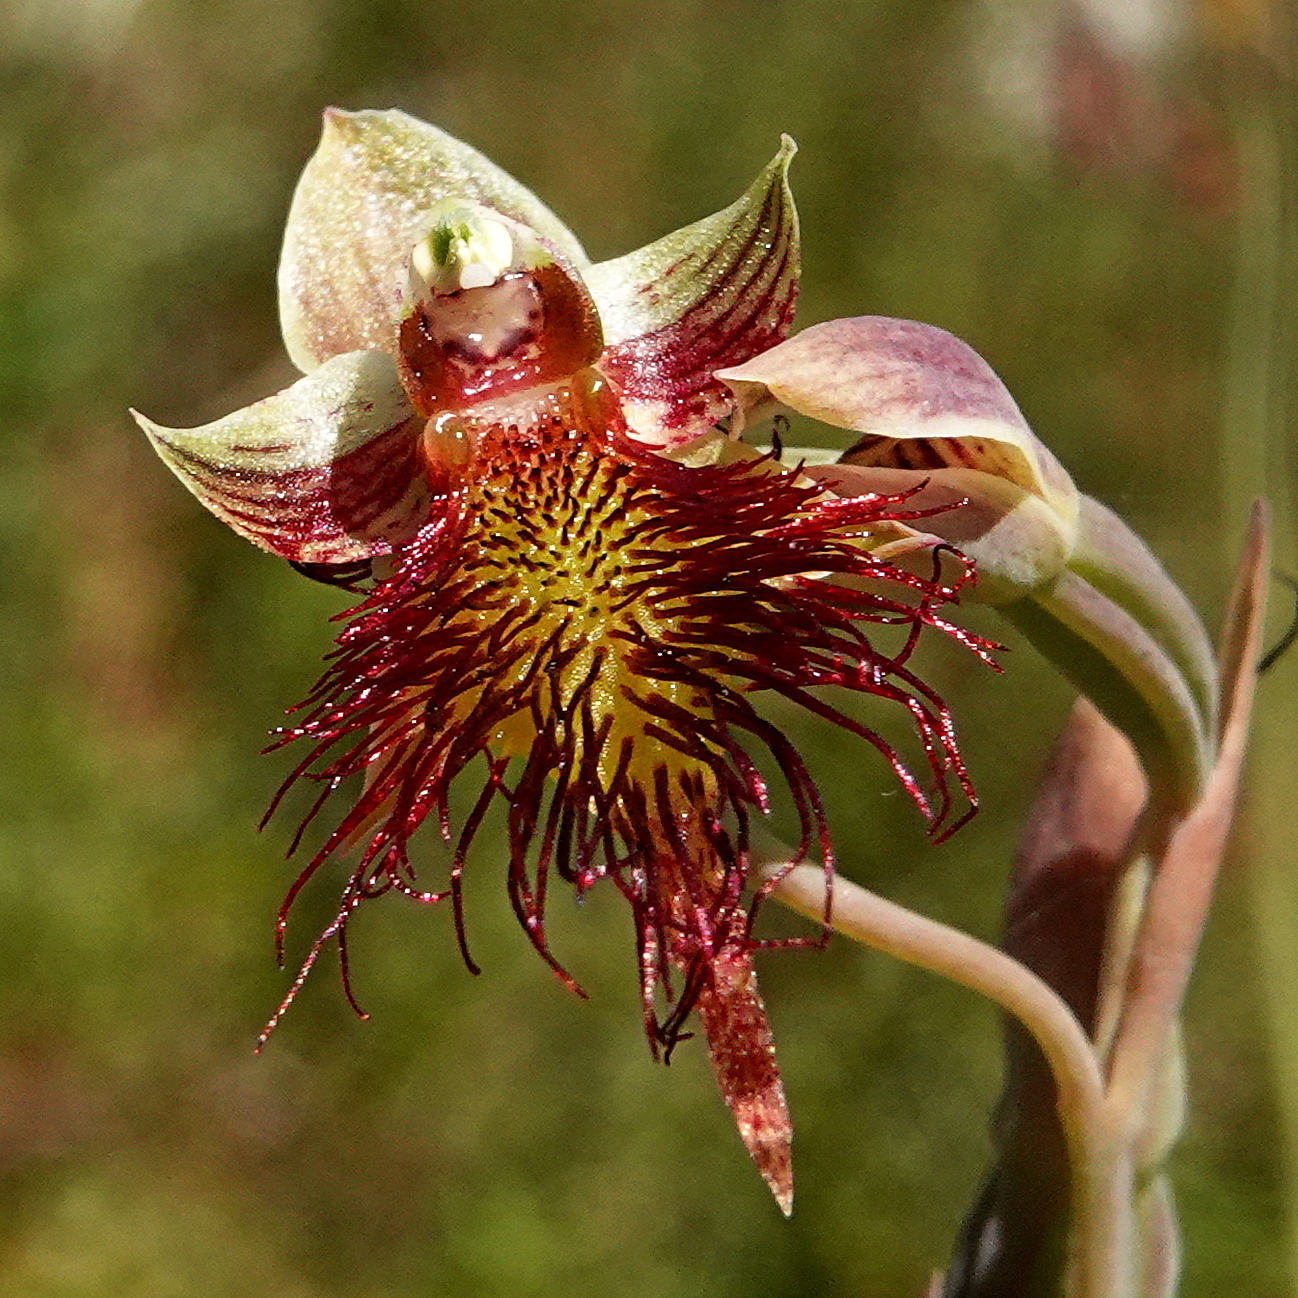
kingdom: Plantae
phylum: Tracheophyta
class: Liliopsida
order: Asparagales
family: Orchidaceae
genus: Calochilus
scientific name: Calochilus paludosus
